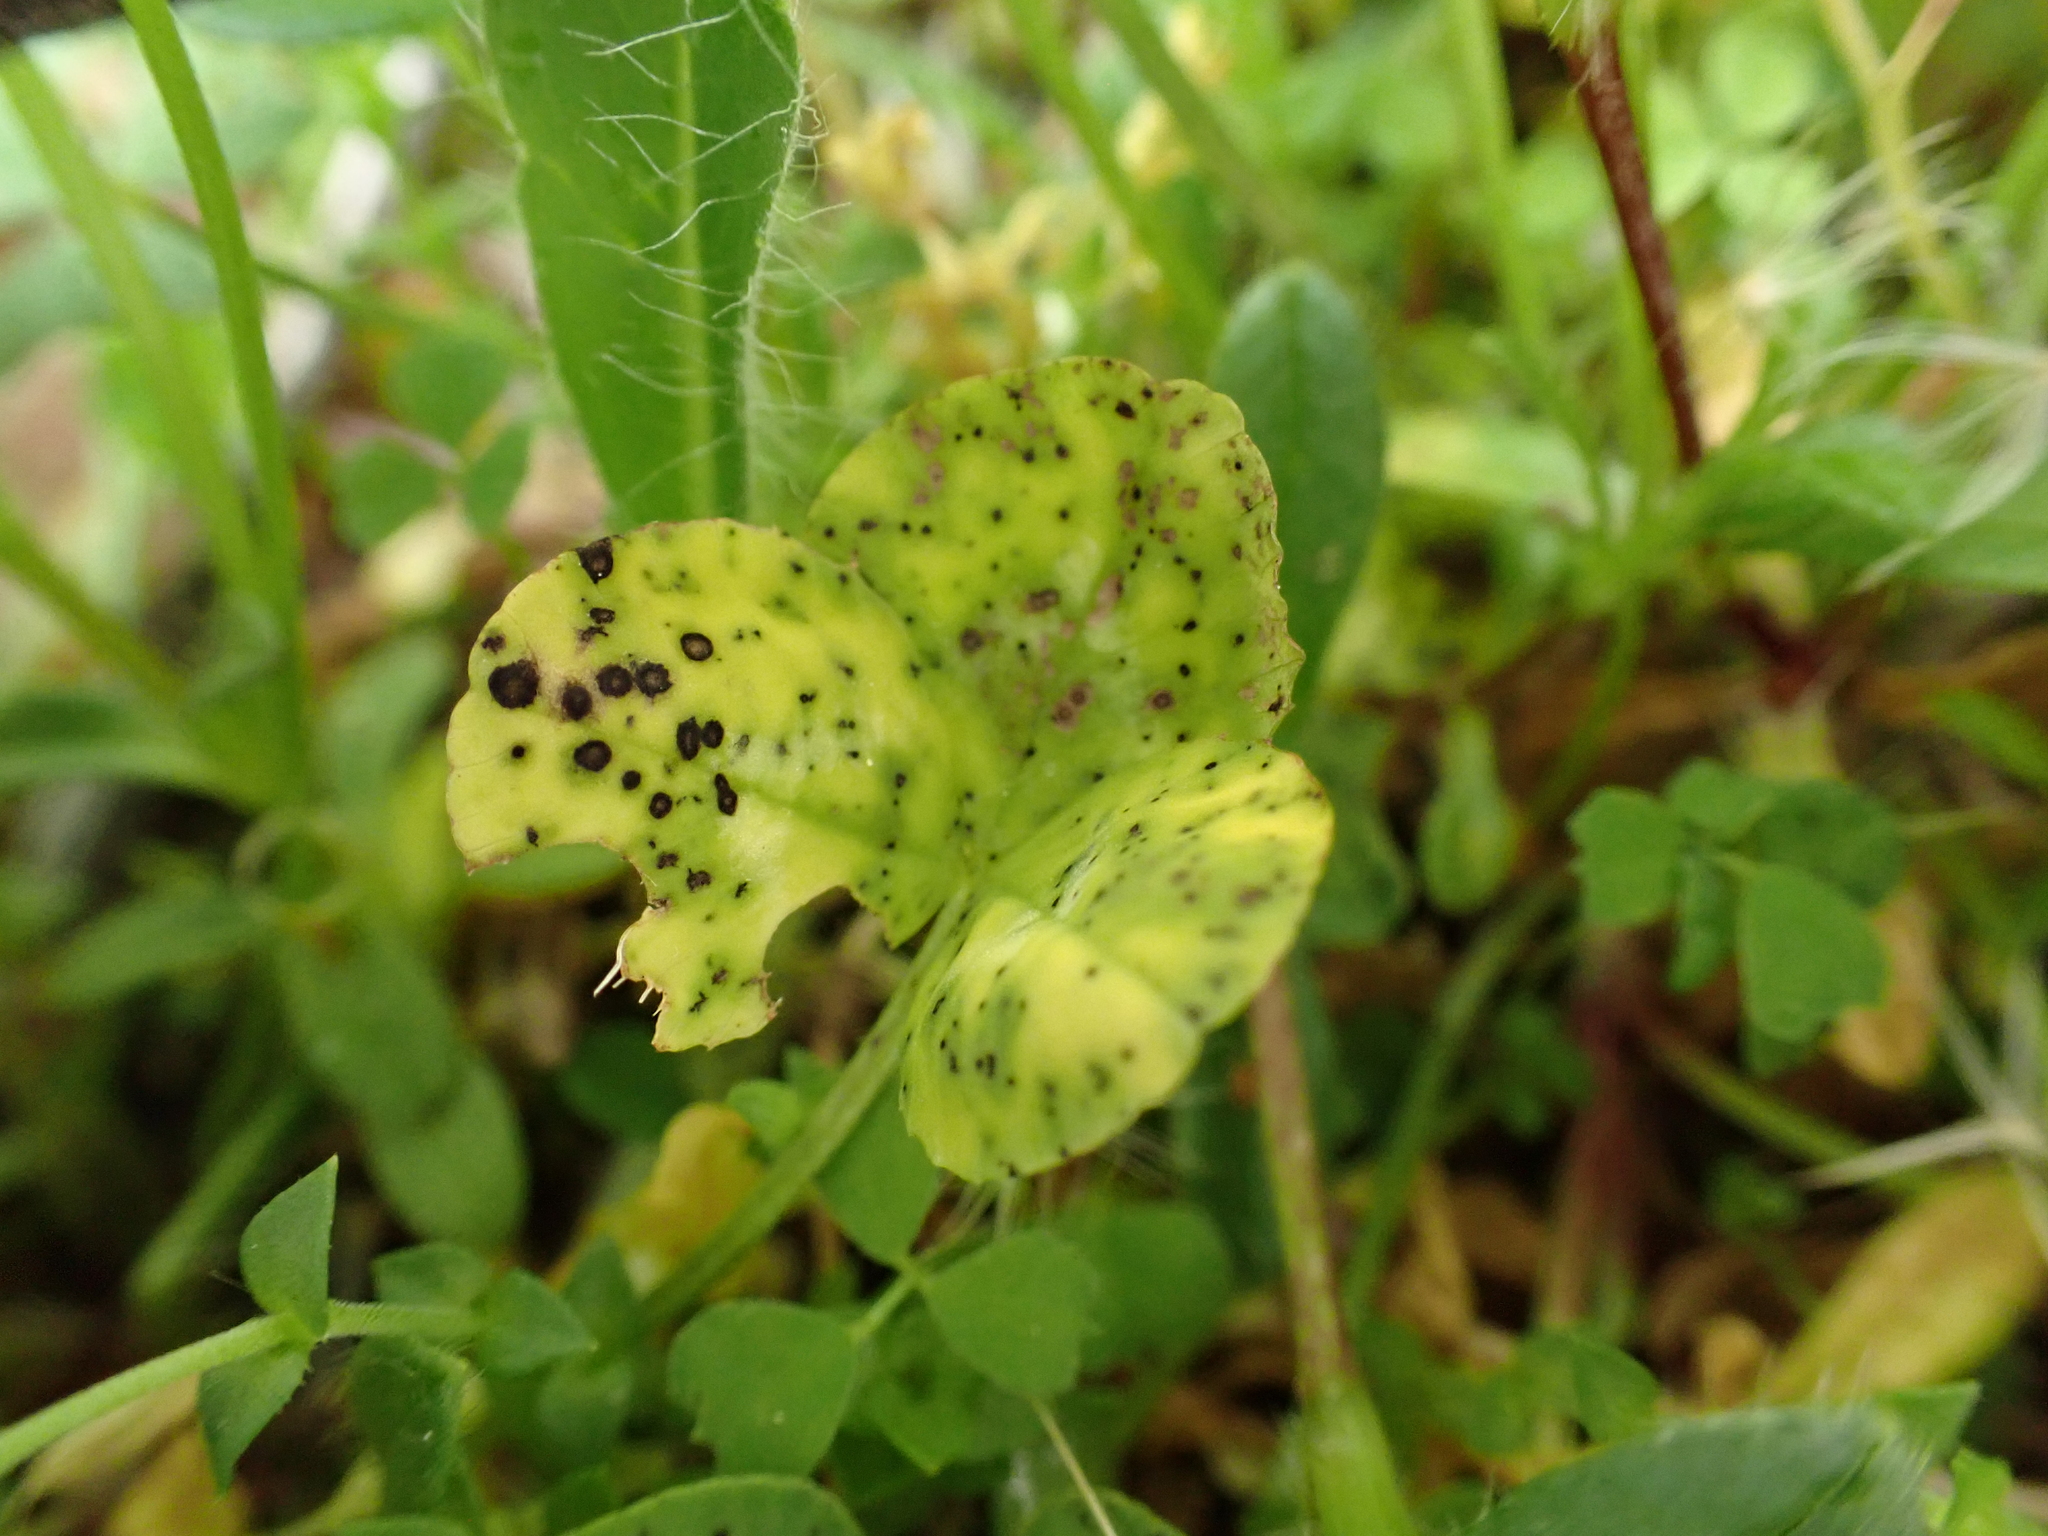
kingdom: Fungi
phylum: Ascomycota
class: Leotiomycetes
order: Helotiales
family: Drepanopezizaceae
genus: Pseudopeziza
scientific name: Pseudopeziza trifolii
